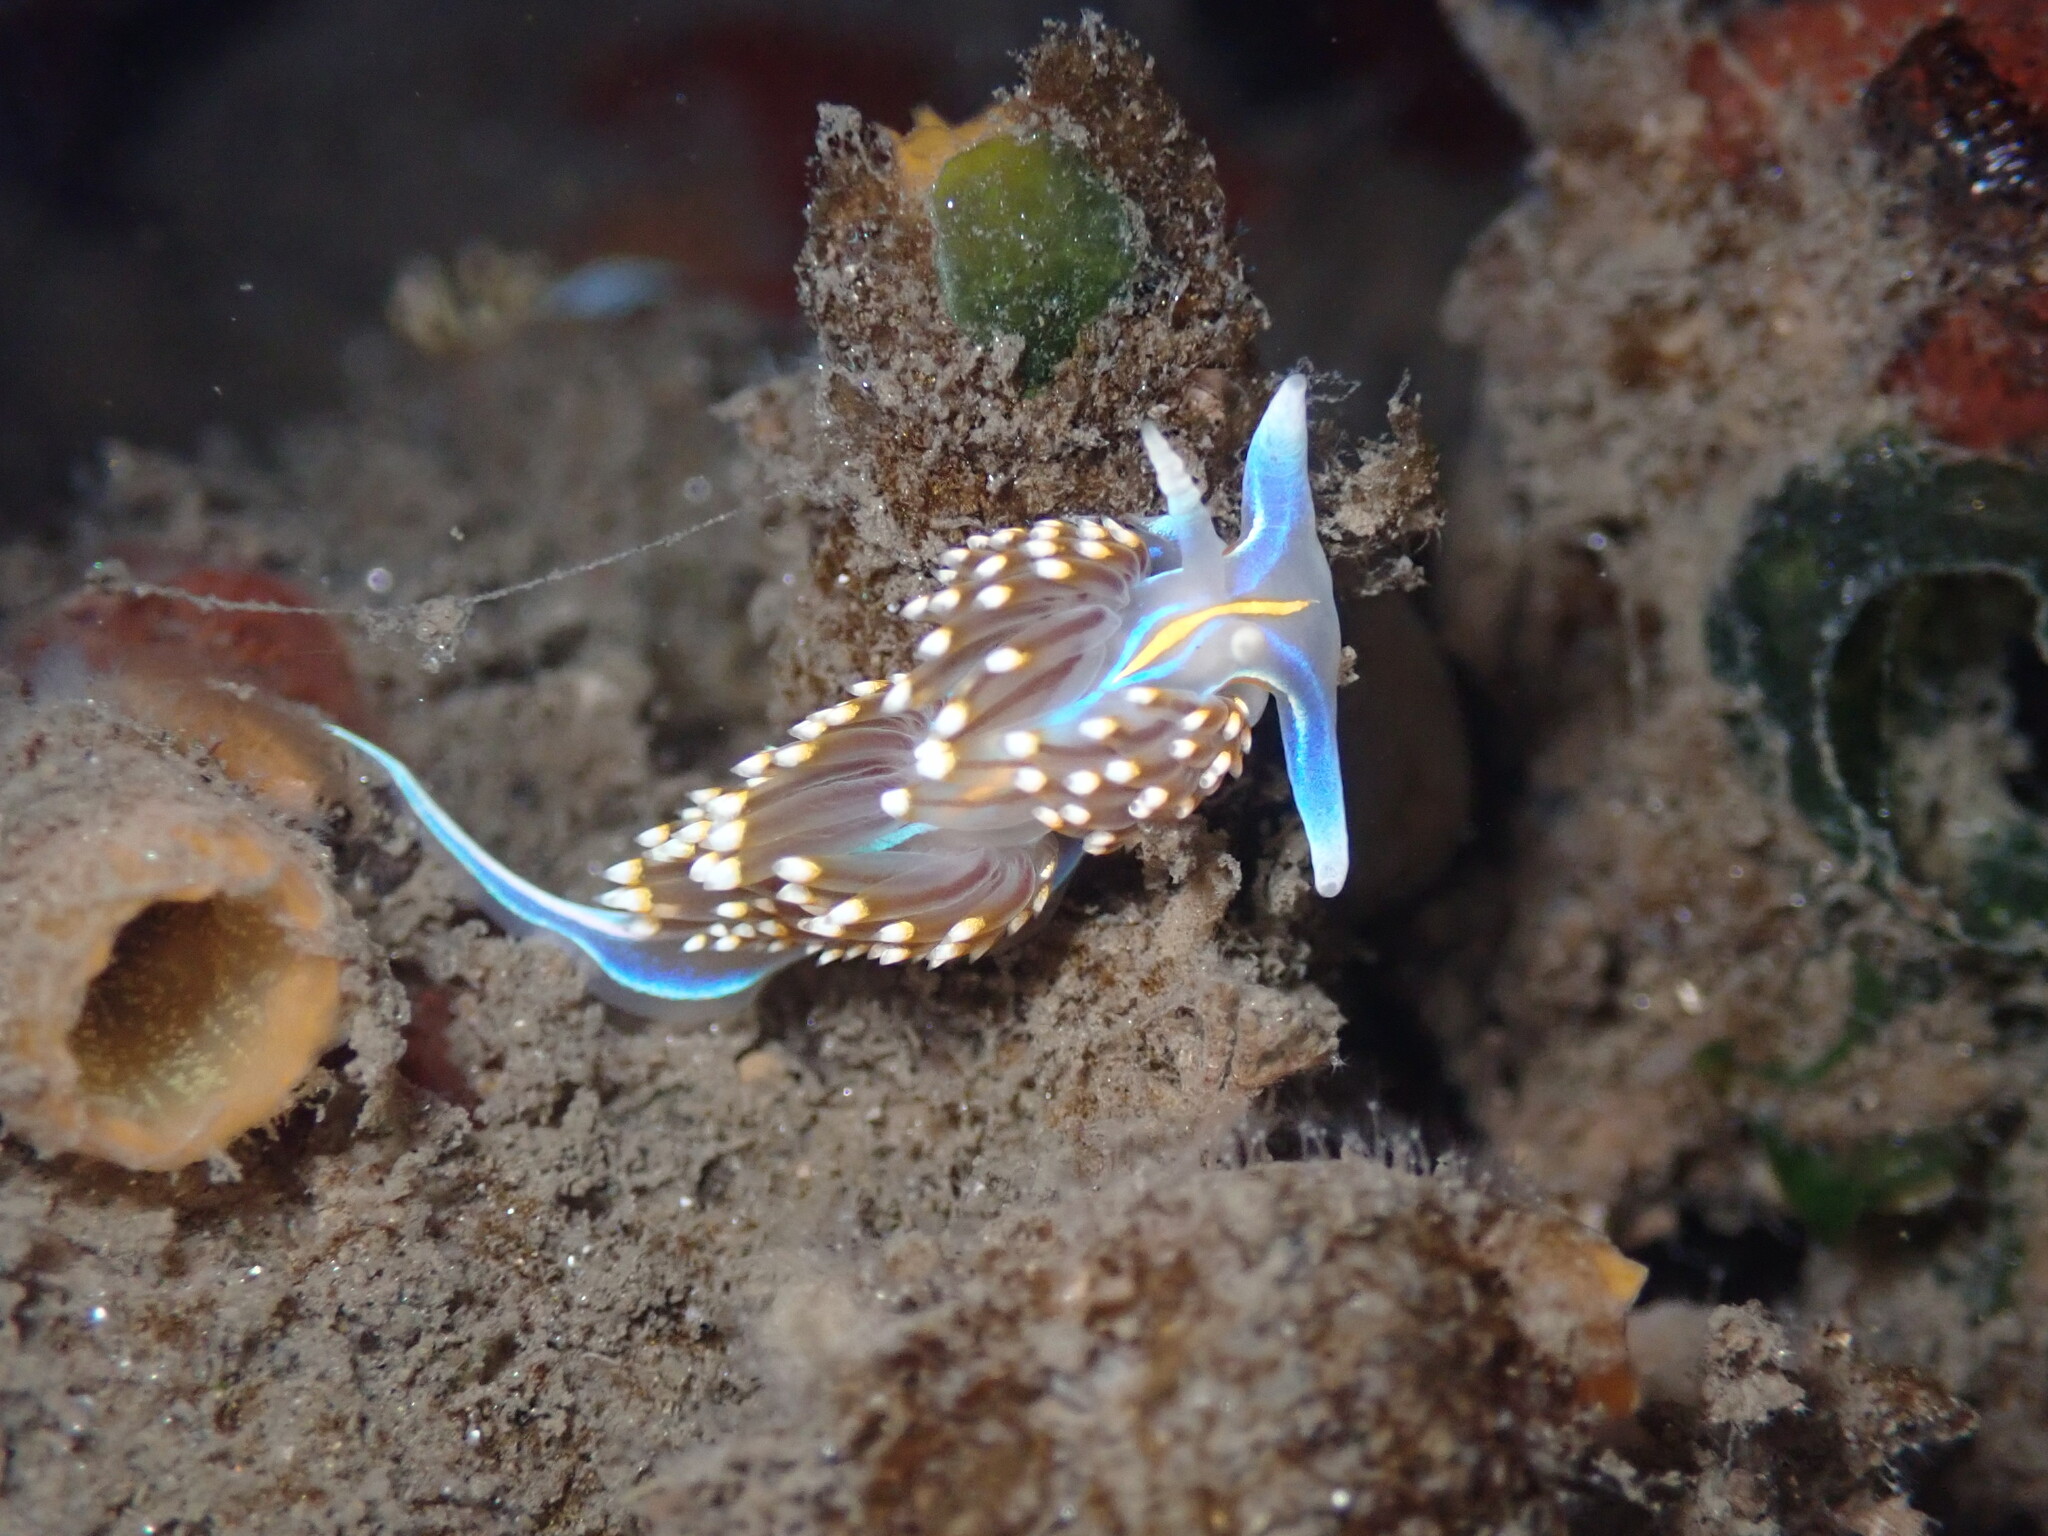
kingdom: Animalia
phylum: Mollusca
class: Gastropoda
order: Nudibranchia
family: Myrrhinidae
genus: Hermissenda
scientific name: Hermissenda opalescens
